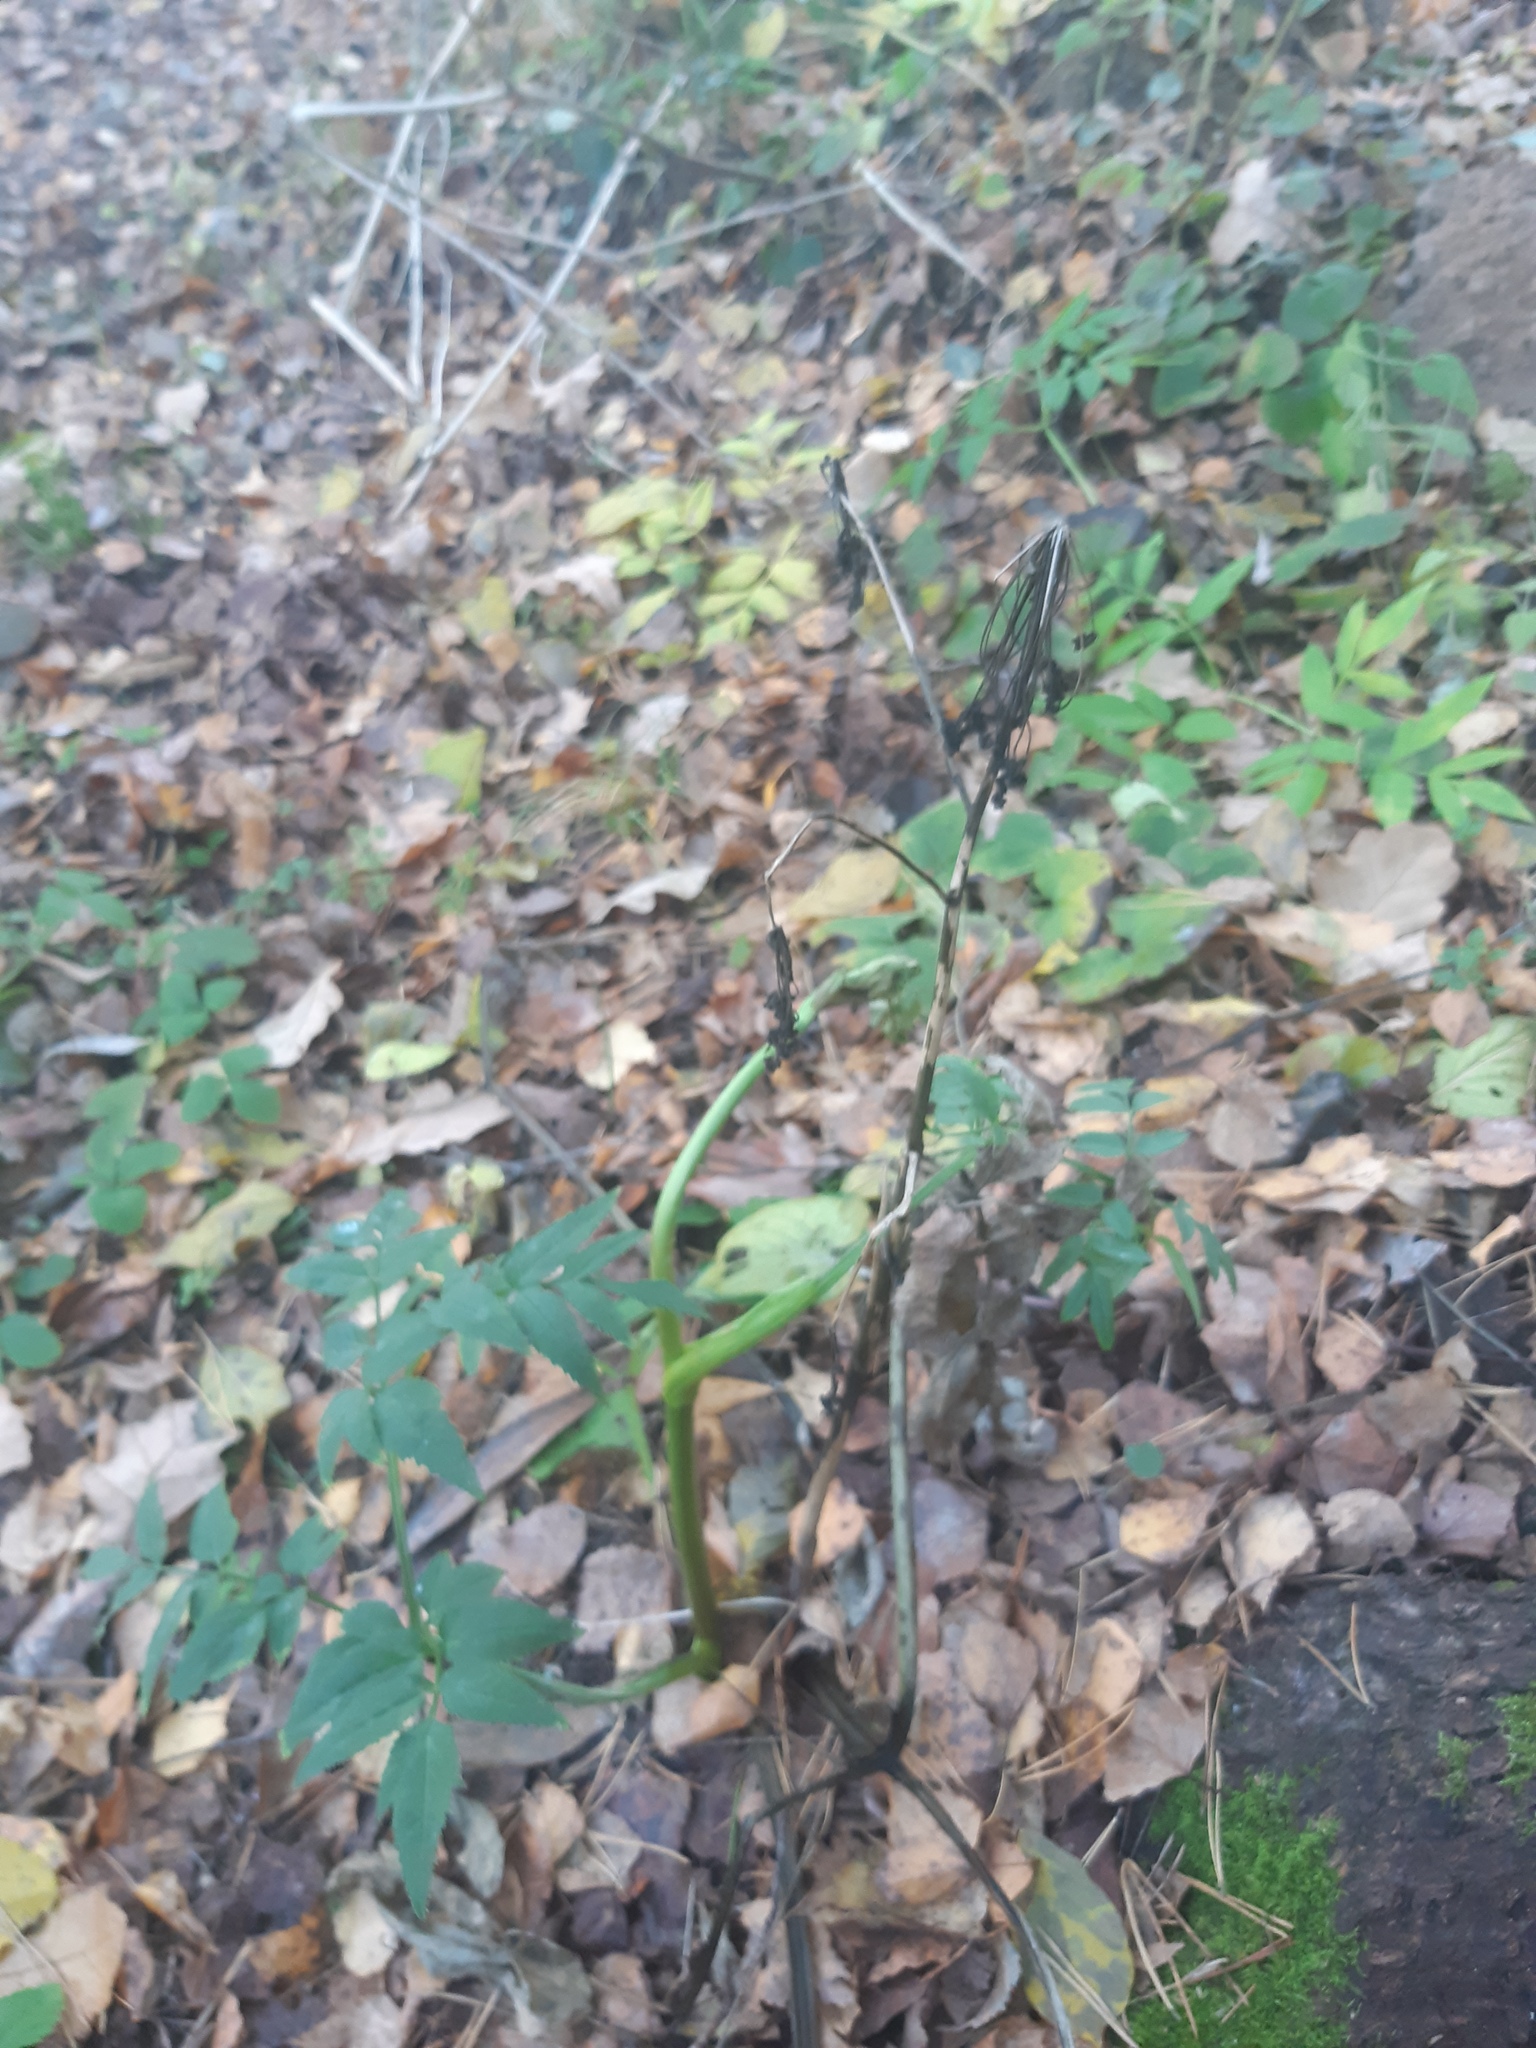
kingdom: Plantae
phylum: Tracheophyta
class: Magnoliopsida
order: Apiales
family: Apiaceae
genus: Angelica
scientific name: Angelica sylvestris
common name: Wild angelica
